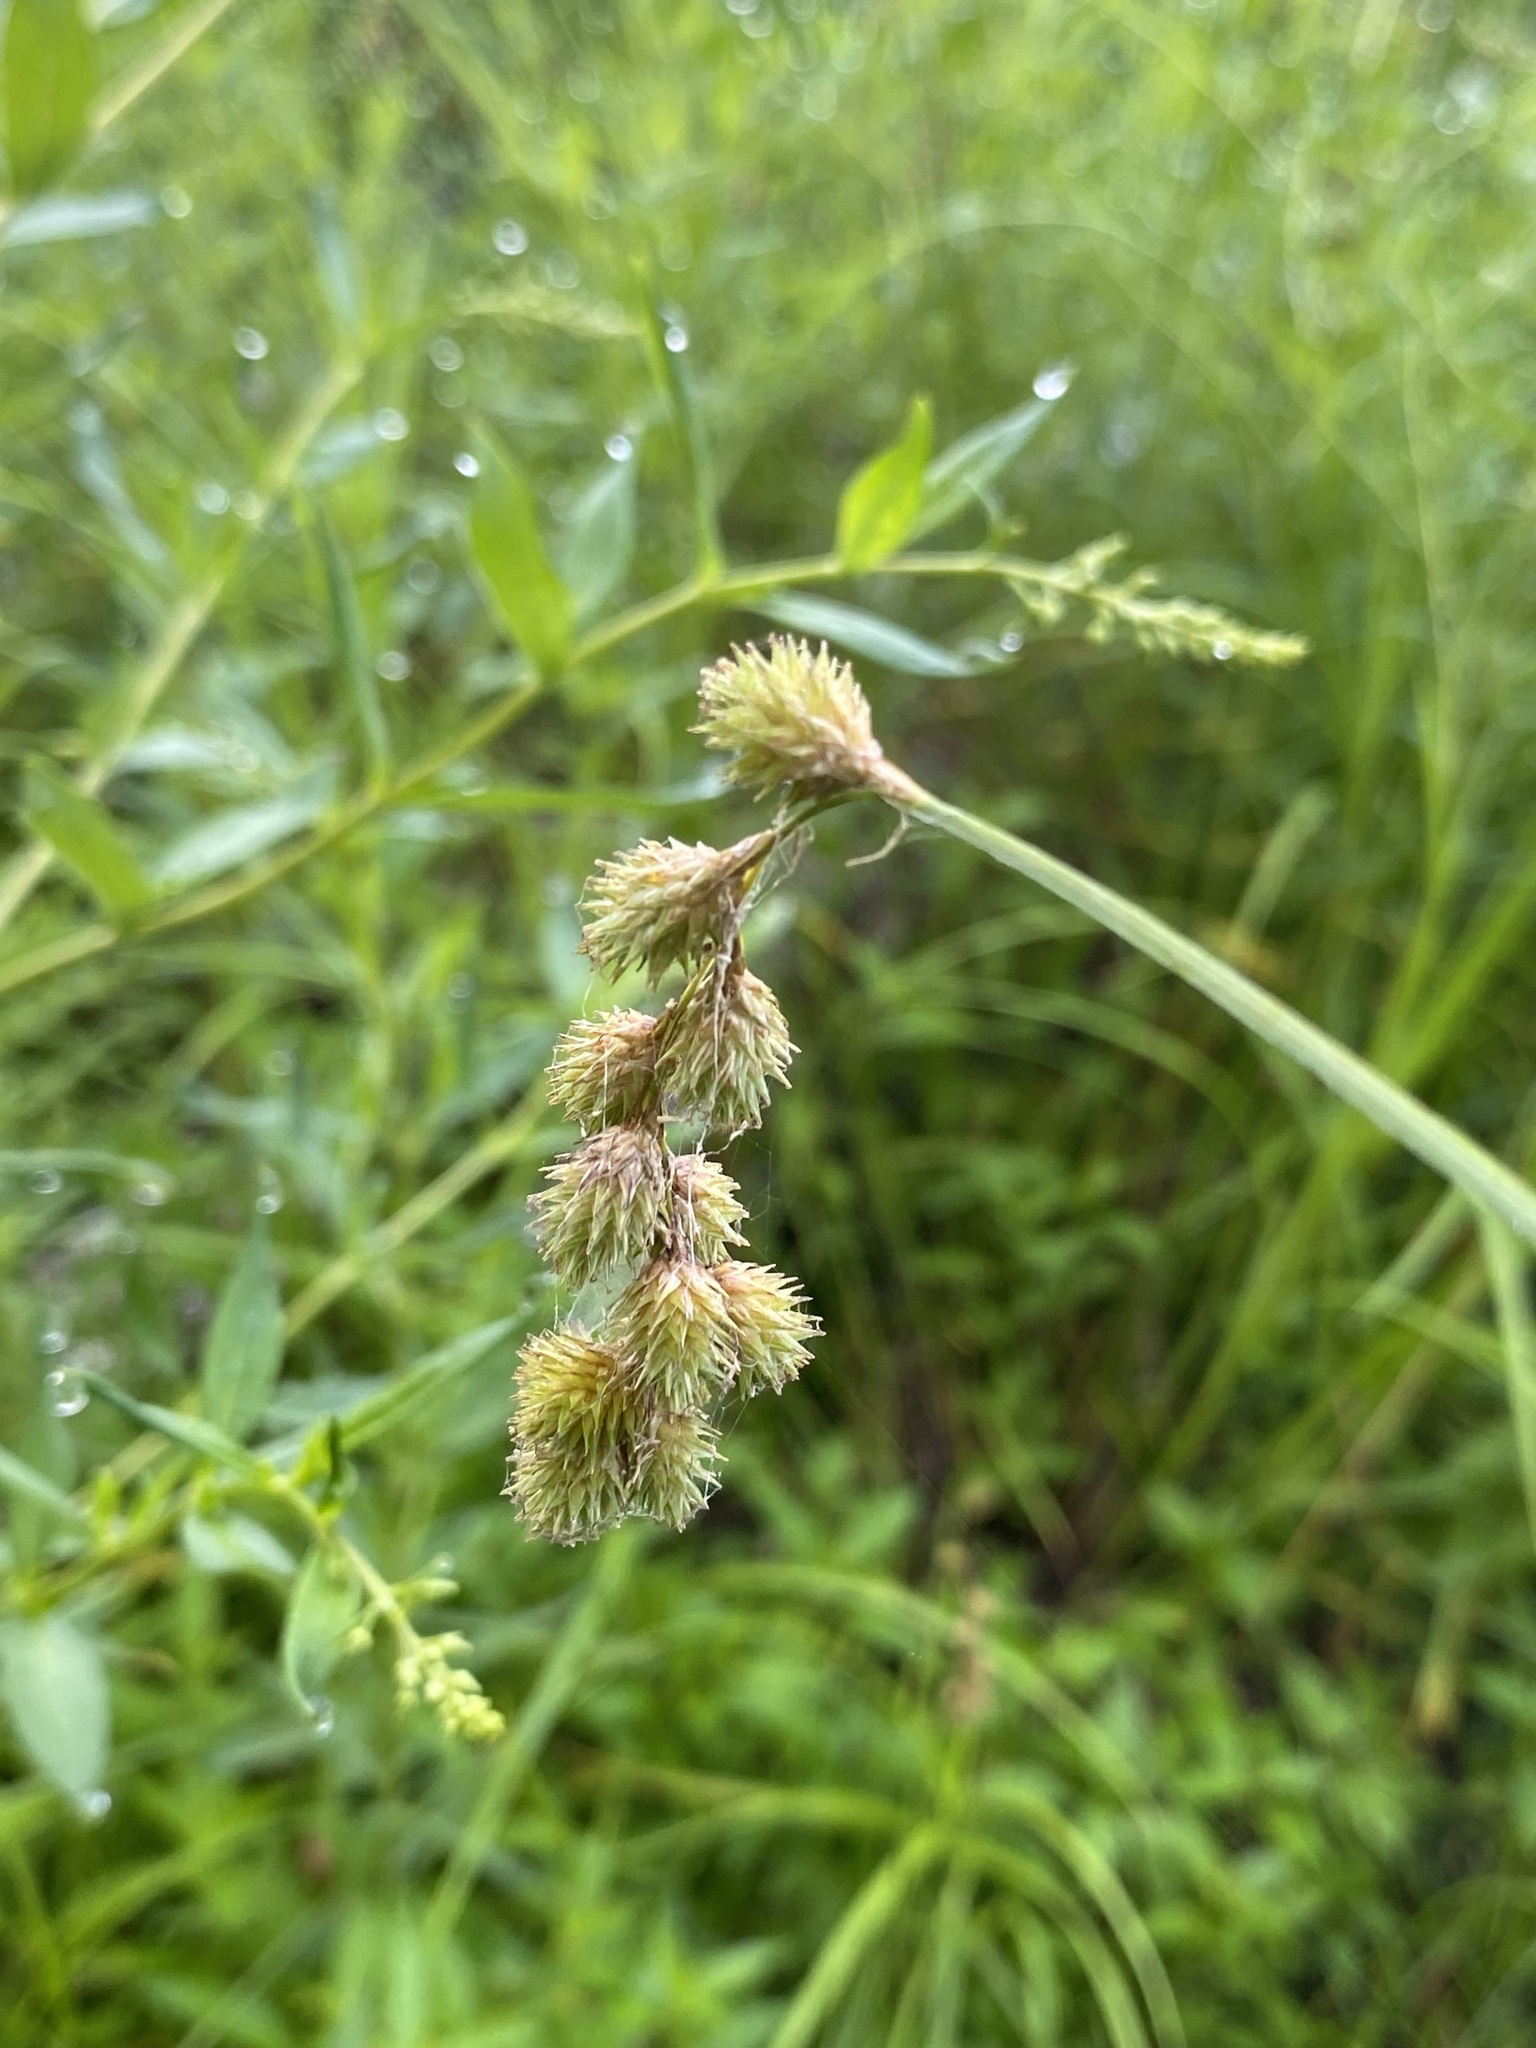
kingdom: Plantae
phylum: Tracheophyta
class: Liliopsida
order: Poales
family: Cyperaceae
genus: Carex
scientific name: Carex projecta
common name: Loose-headed oval sedge
